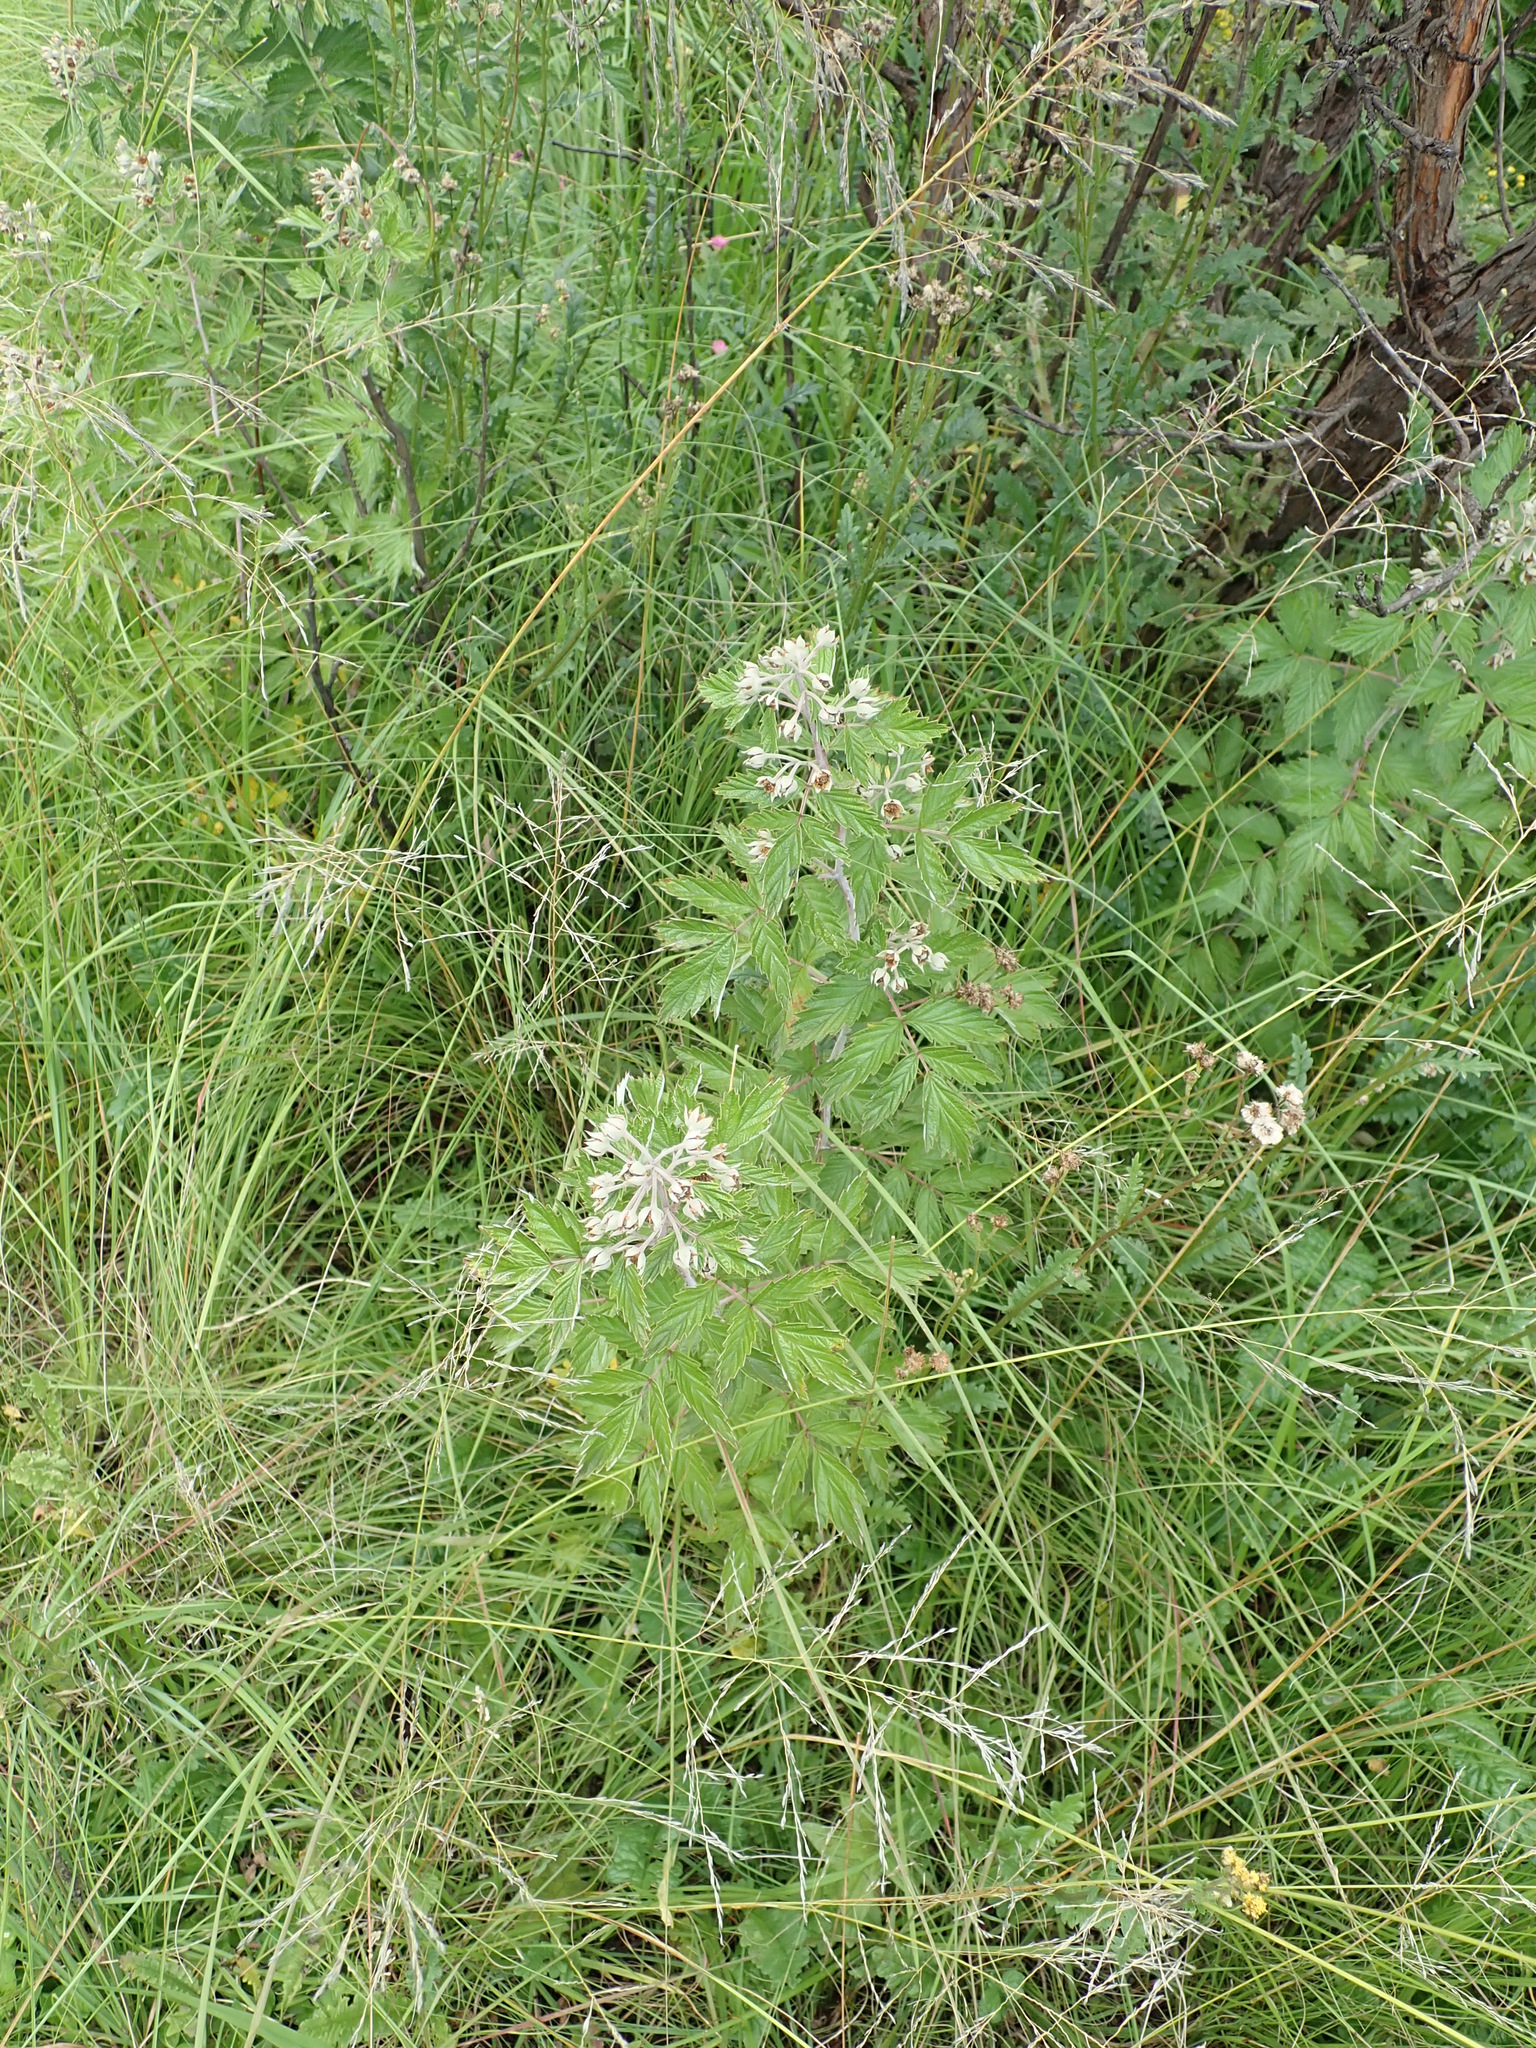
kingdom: Plantae
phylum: Tracheophyta
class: Magnoliopsida
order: Rosales
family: Rosaceae
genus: Rubus
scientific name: Rubus ludwigii
